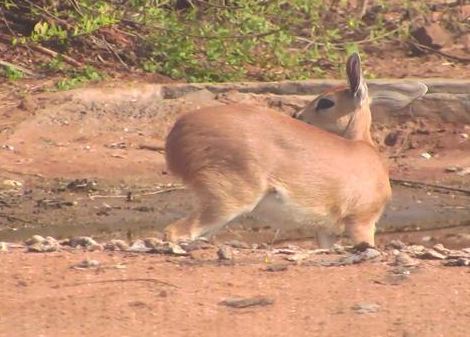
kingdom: Animalia
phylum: Chordata
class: Mammalia
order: Artiodactyla
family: Bovidae
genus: Raphicerus
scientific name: Raphicerus campestris
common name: Steenbok
